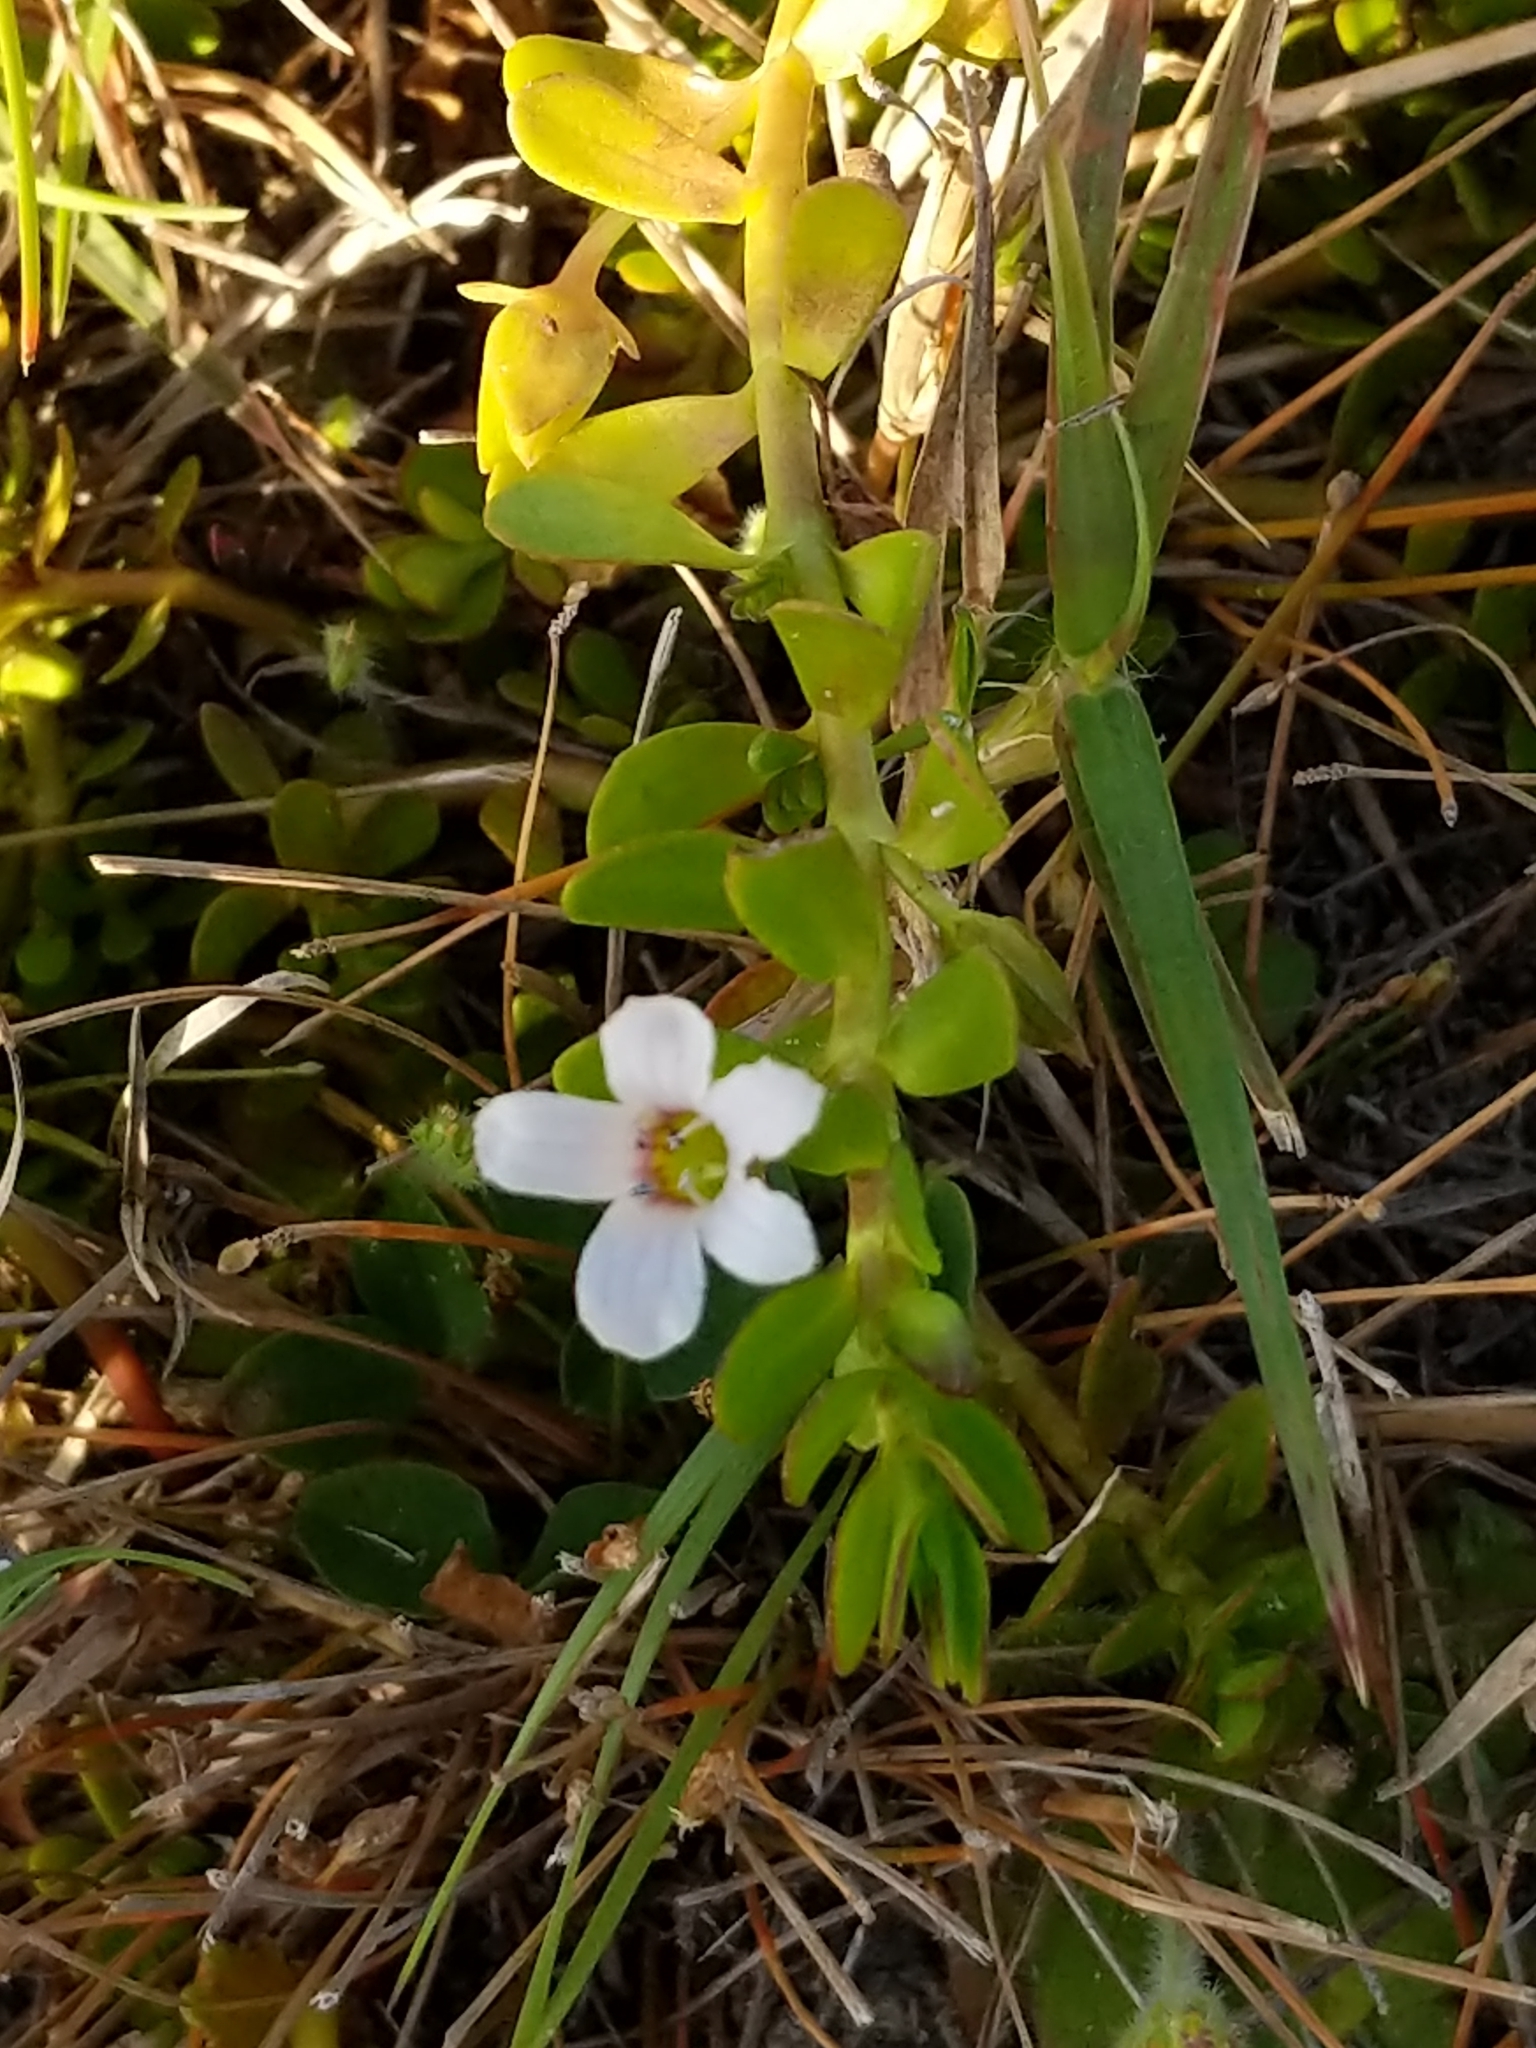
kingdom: Plantae
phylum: Tracheophyta
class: Magnoliopsida
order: Lamiales
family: Plantaginaceae
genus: Bacopa
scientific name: Bacopa monnieri
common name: Indian-pennywort
